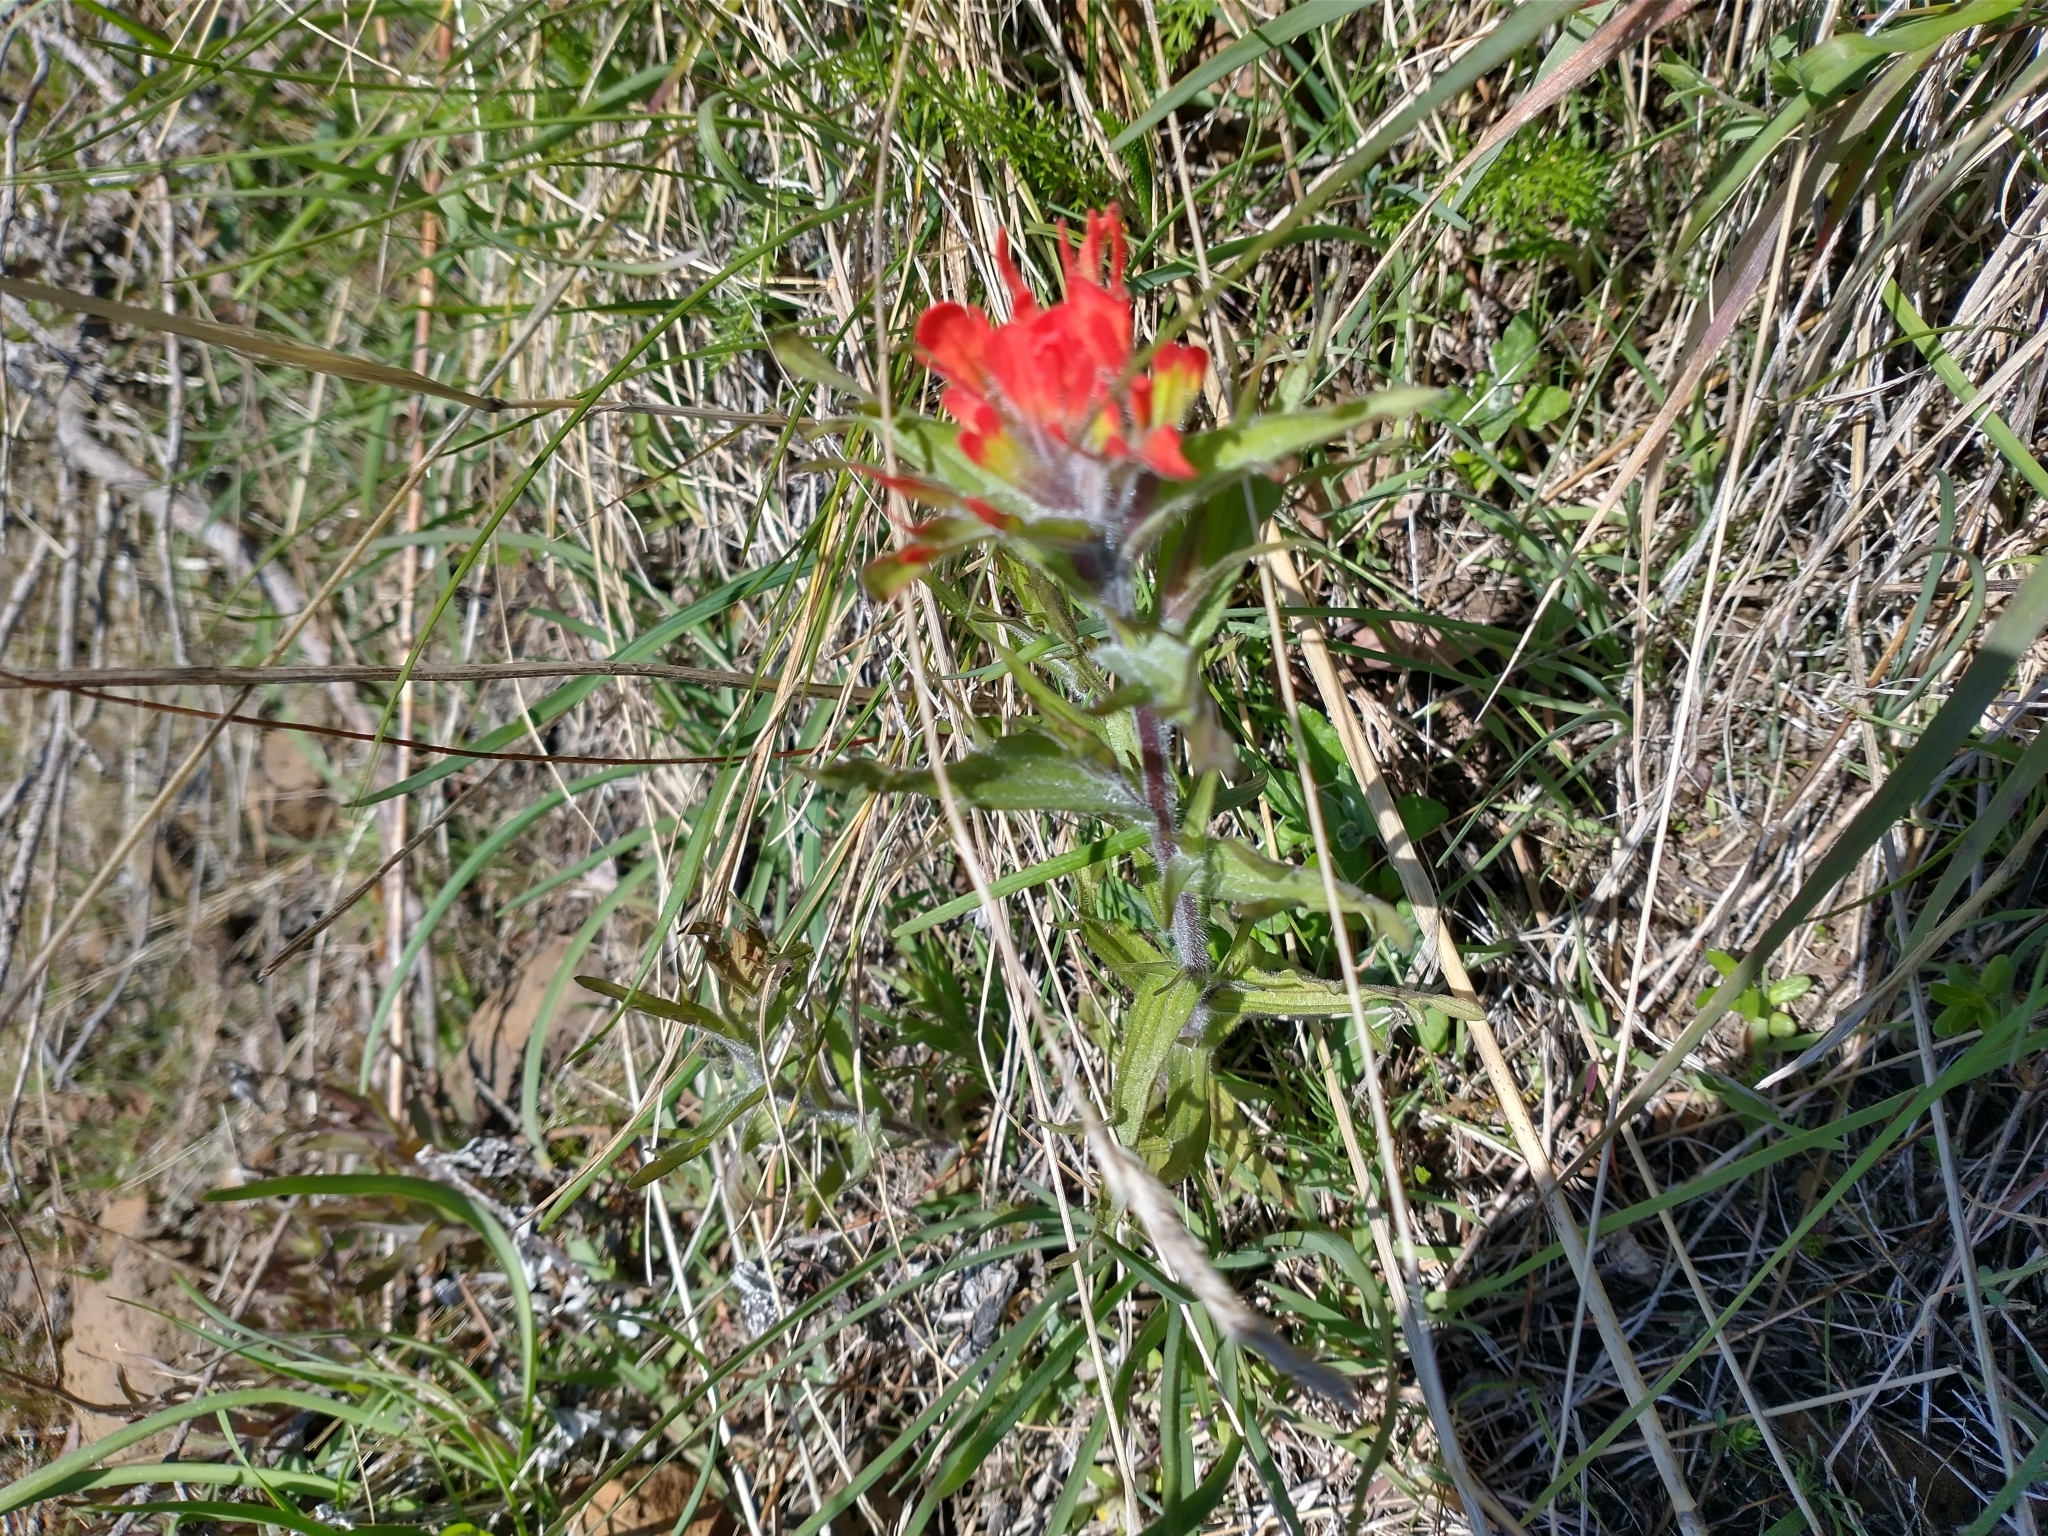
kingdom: Plantae
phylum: Tracheophyta
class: Magnoliopsida
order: Lamiales
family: Orobanchaceae
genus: Castilleja
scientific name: Castilleja hispida
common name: Bristly paintbrush
